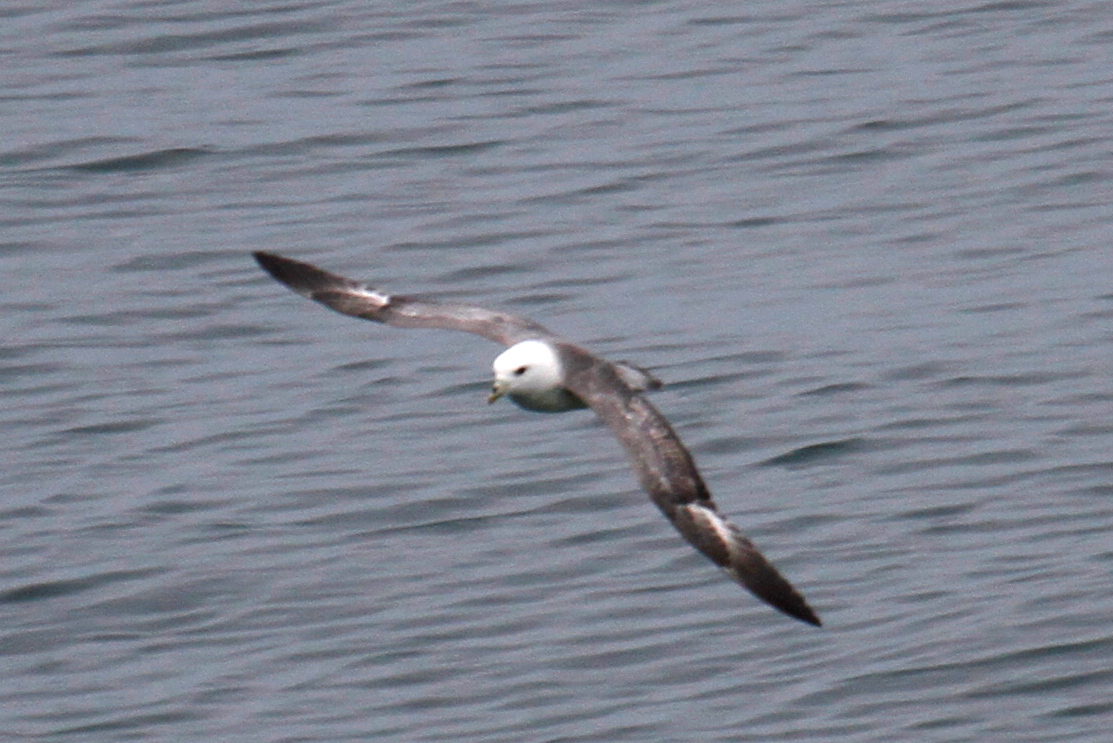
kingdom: Animalia
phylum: Chordata
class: Aves
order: Procellariiformes
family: Procellariidae
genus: Fulmarus
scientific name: Fulmarus glacialis
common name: Northern fulmar
